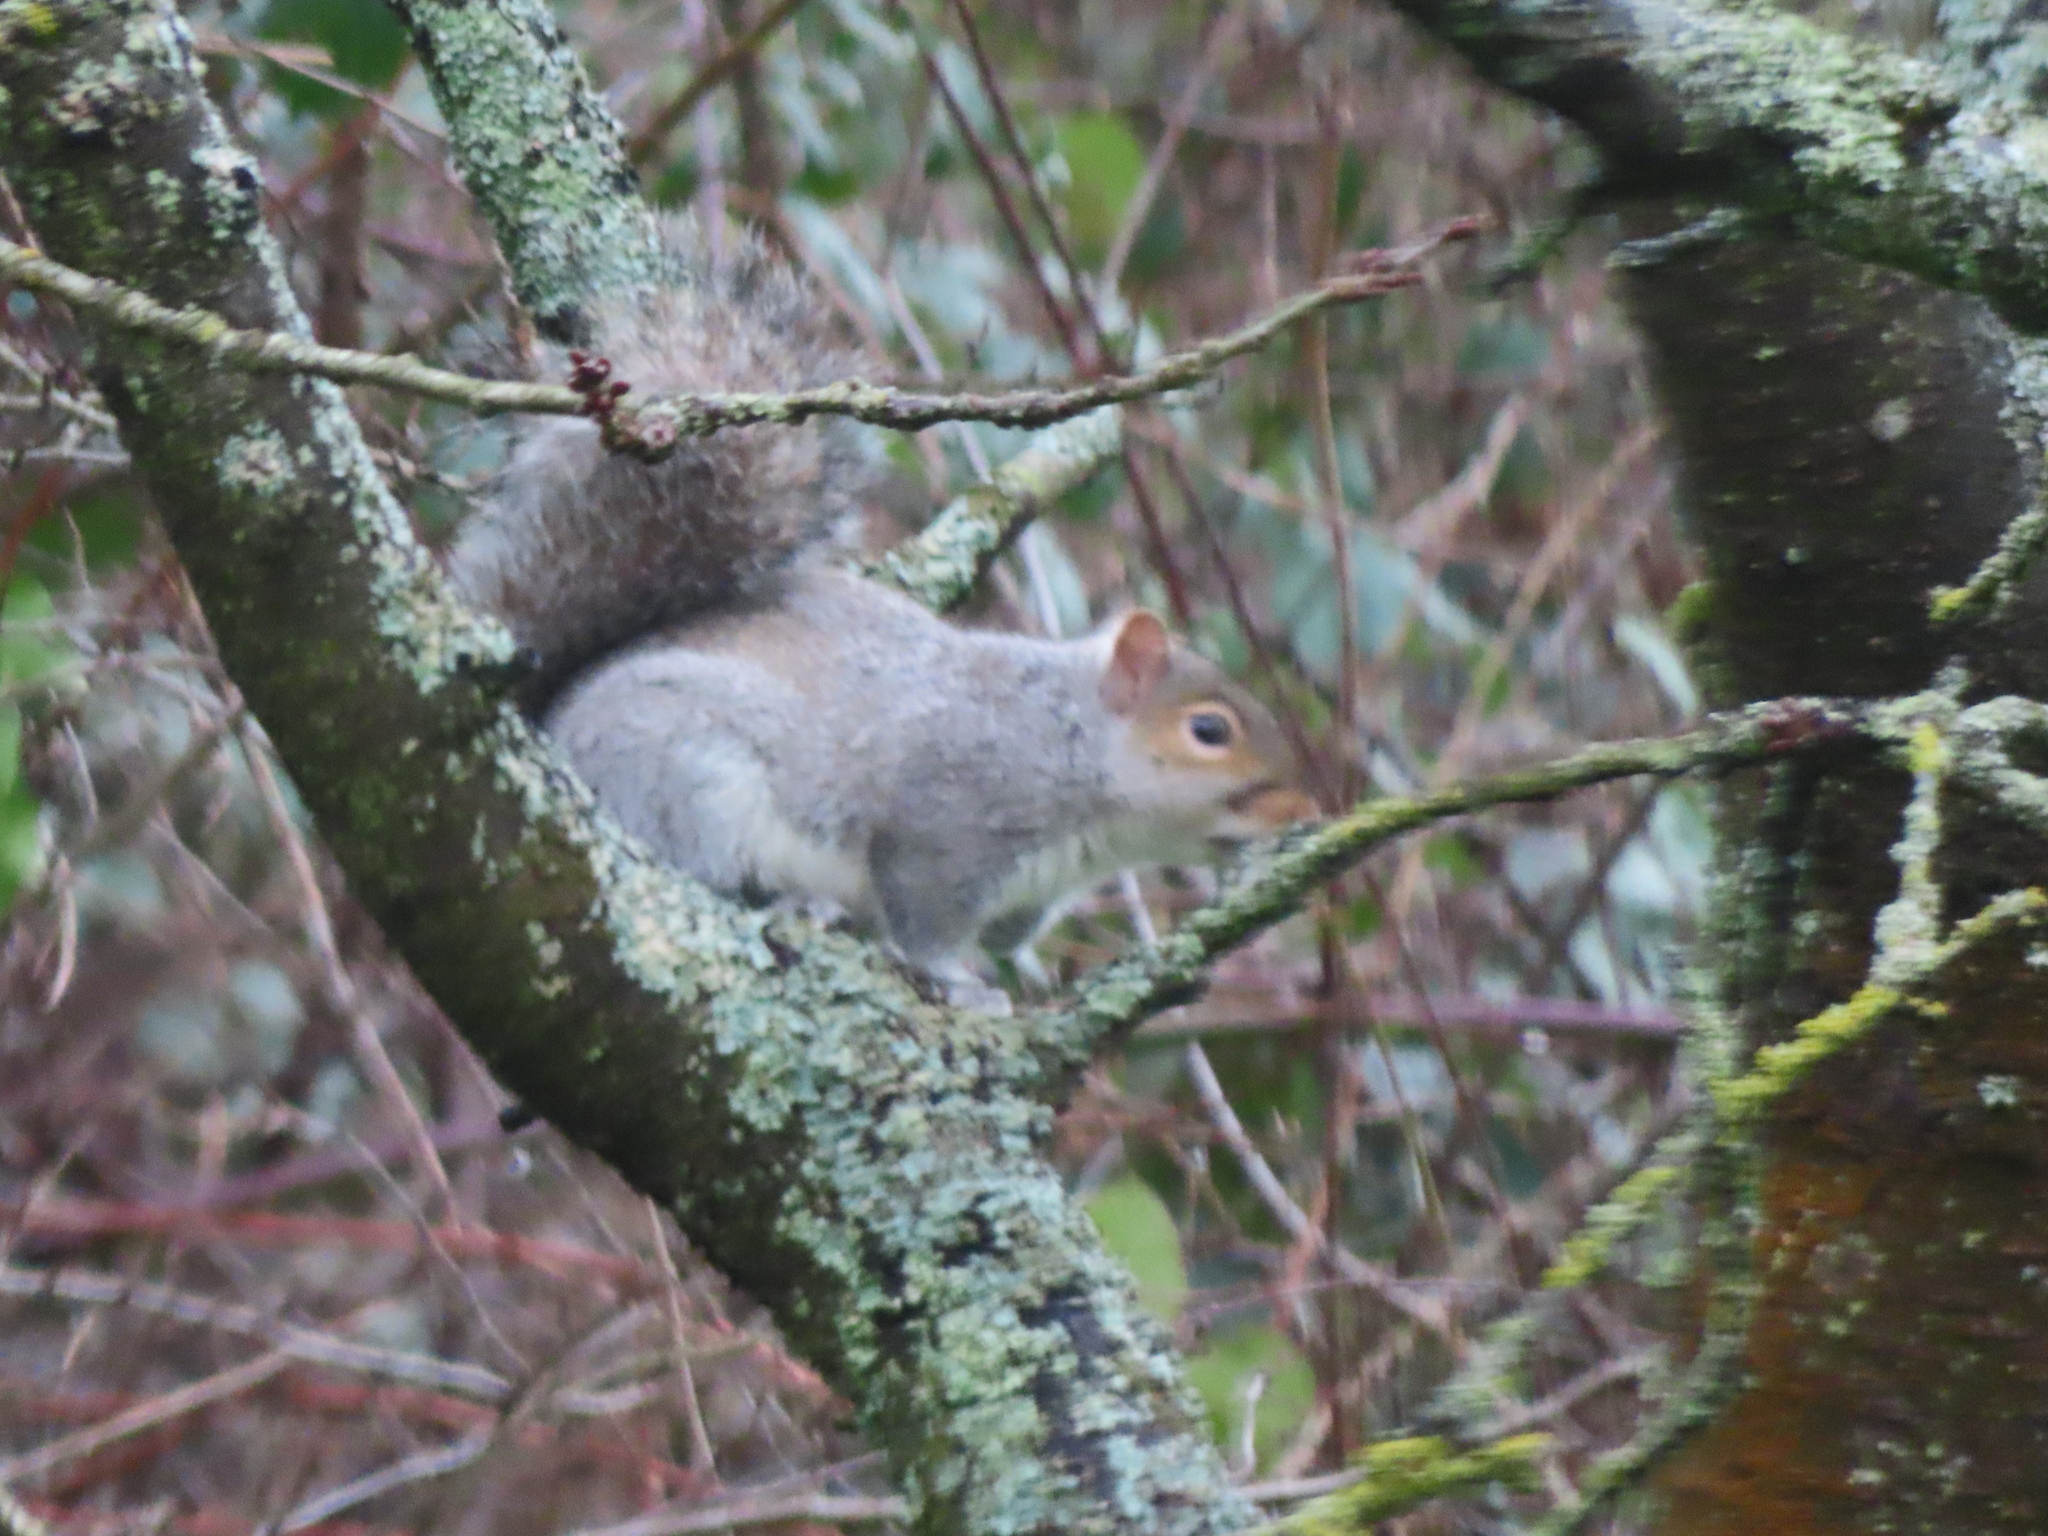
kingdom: Animalia
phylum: Chordata
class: Mammalia
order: Rodentia
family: Sciuridae
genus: Sciurus
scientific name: Sciurus carolinensis
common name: Eastern gray squirrel
